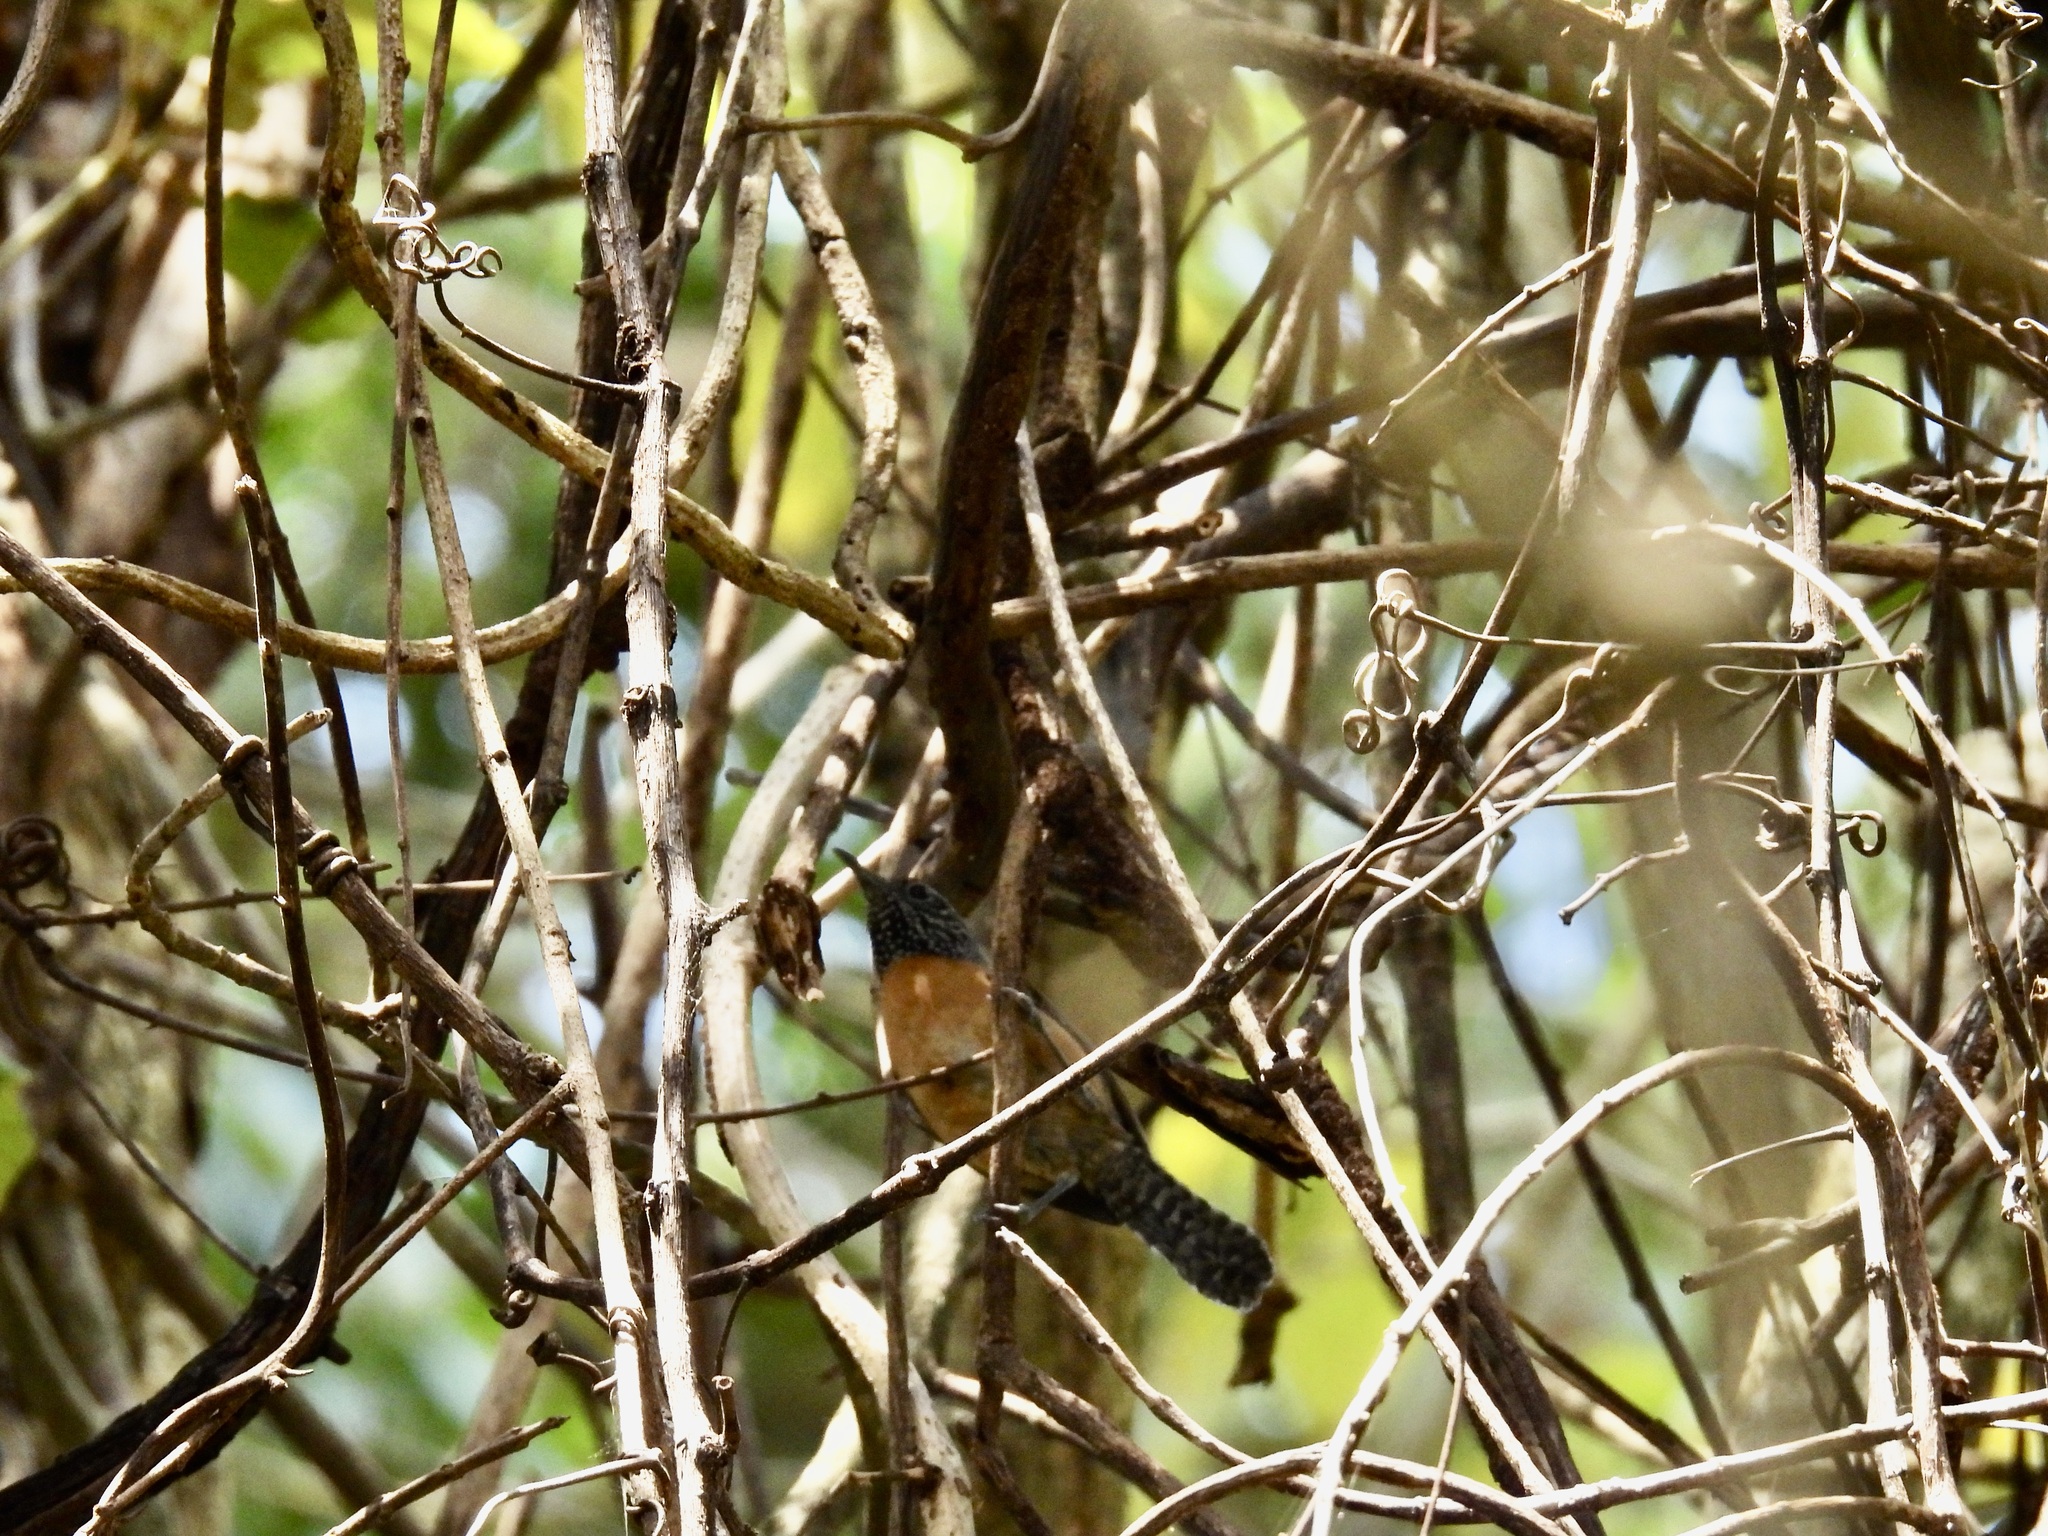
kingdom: Animalia
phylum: Chordata
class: Aves
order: Passeriformes
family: Troglodytidae
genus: Pheugopedius
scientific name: Pheugopedius rutilus
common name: Rufous-breasted wren
